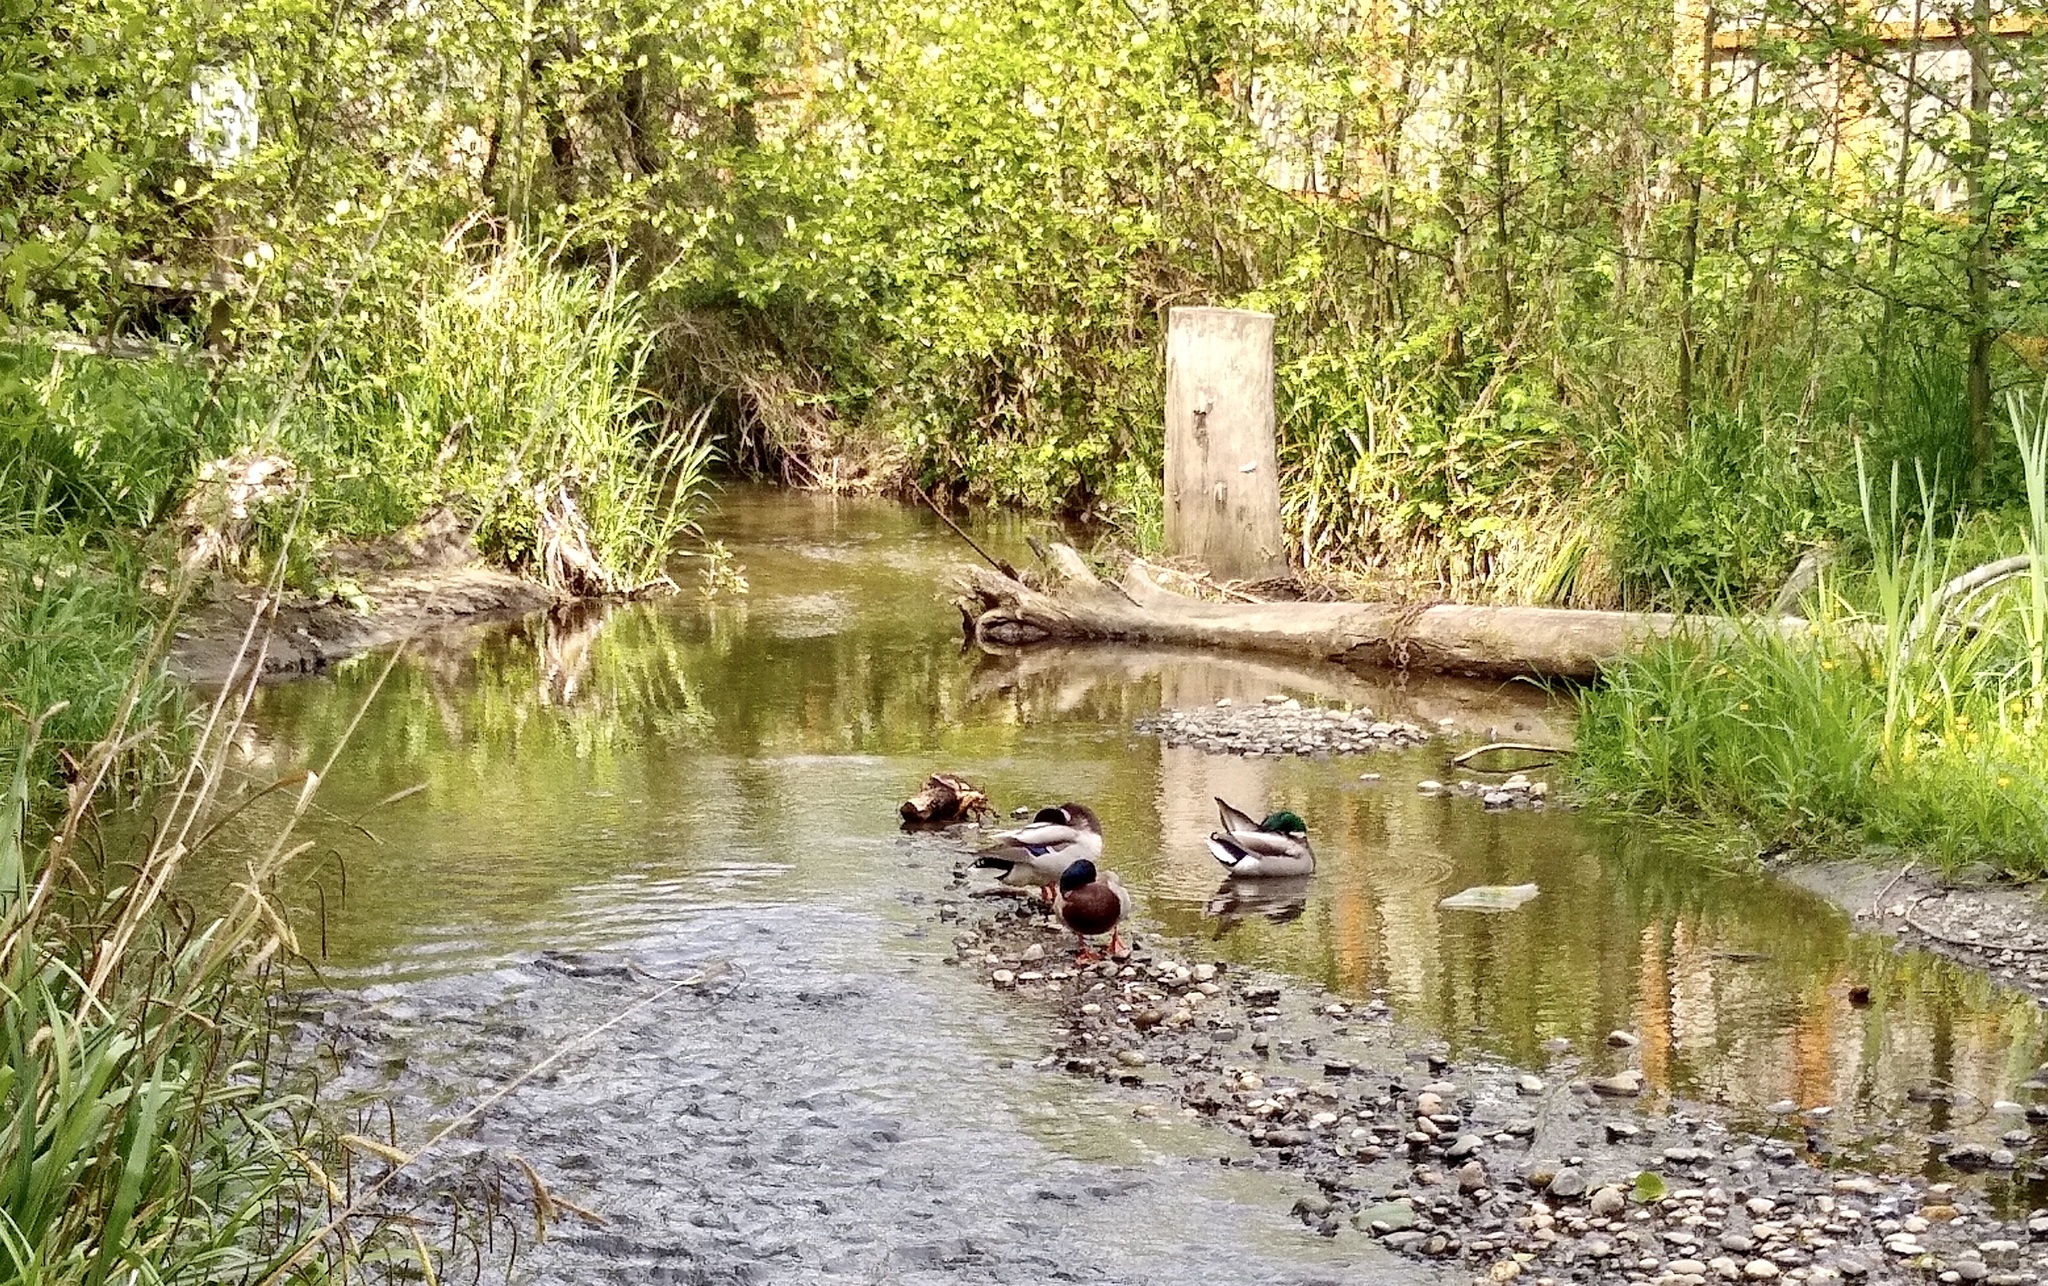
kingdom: Animalia
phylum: Chordata
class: Aves
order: Anseriformes
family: Anatidae
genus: Anas
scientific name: Anas platyrhynchos
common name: Mallard
